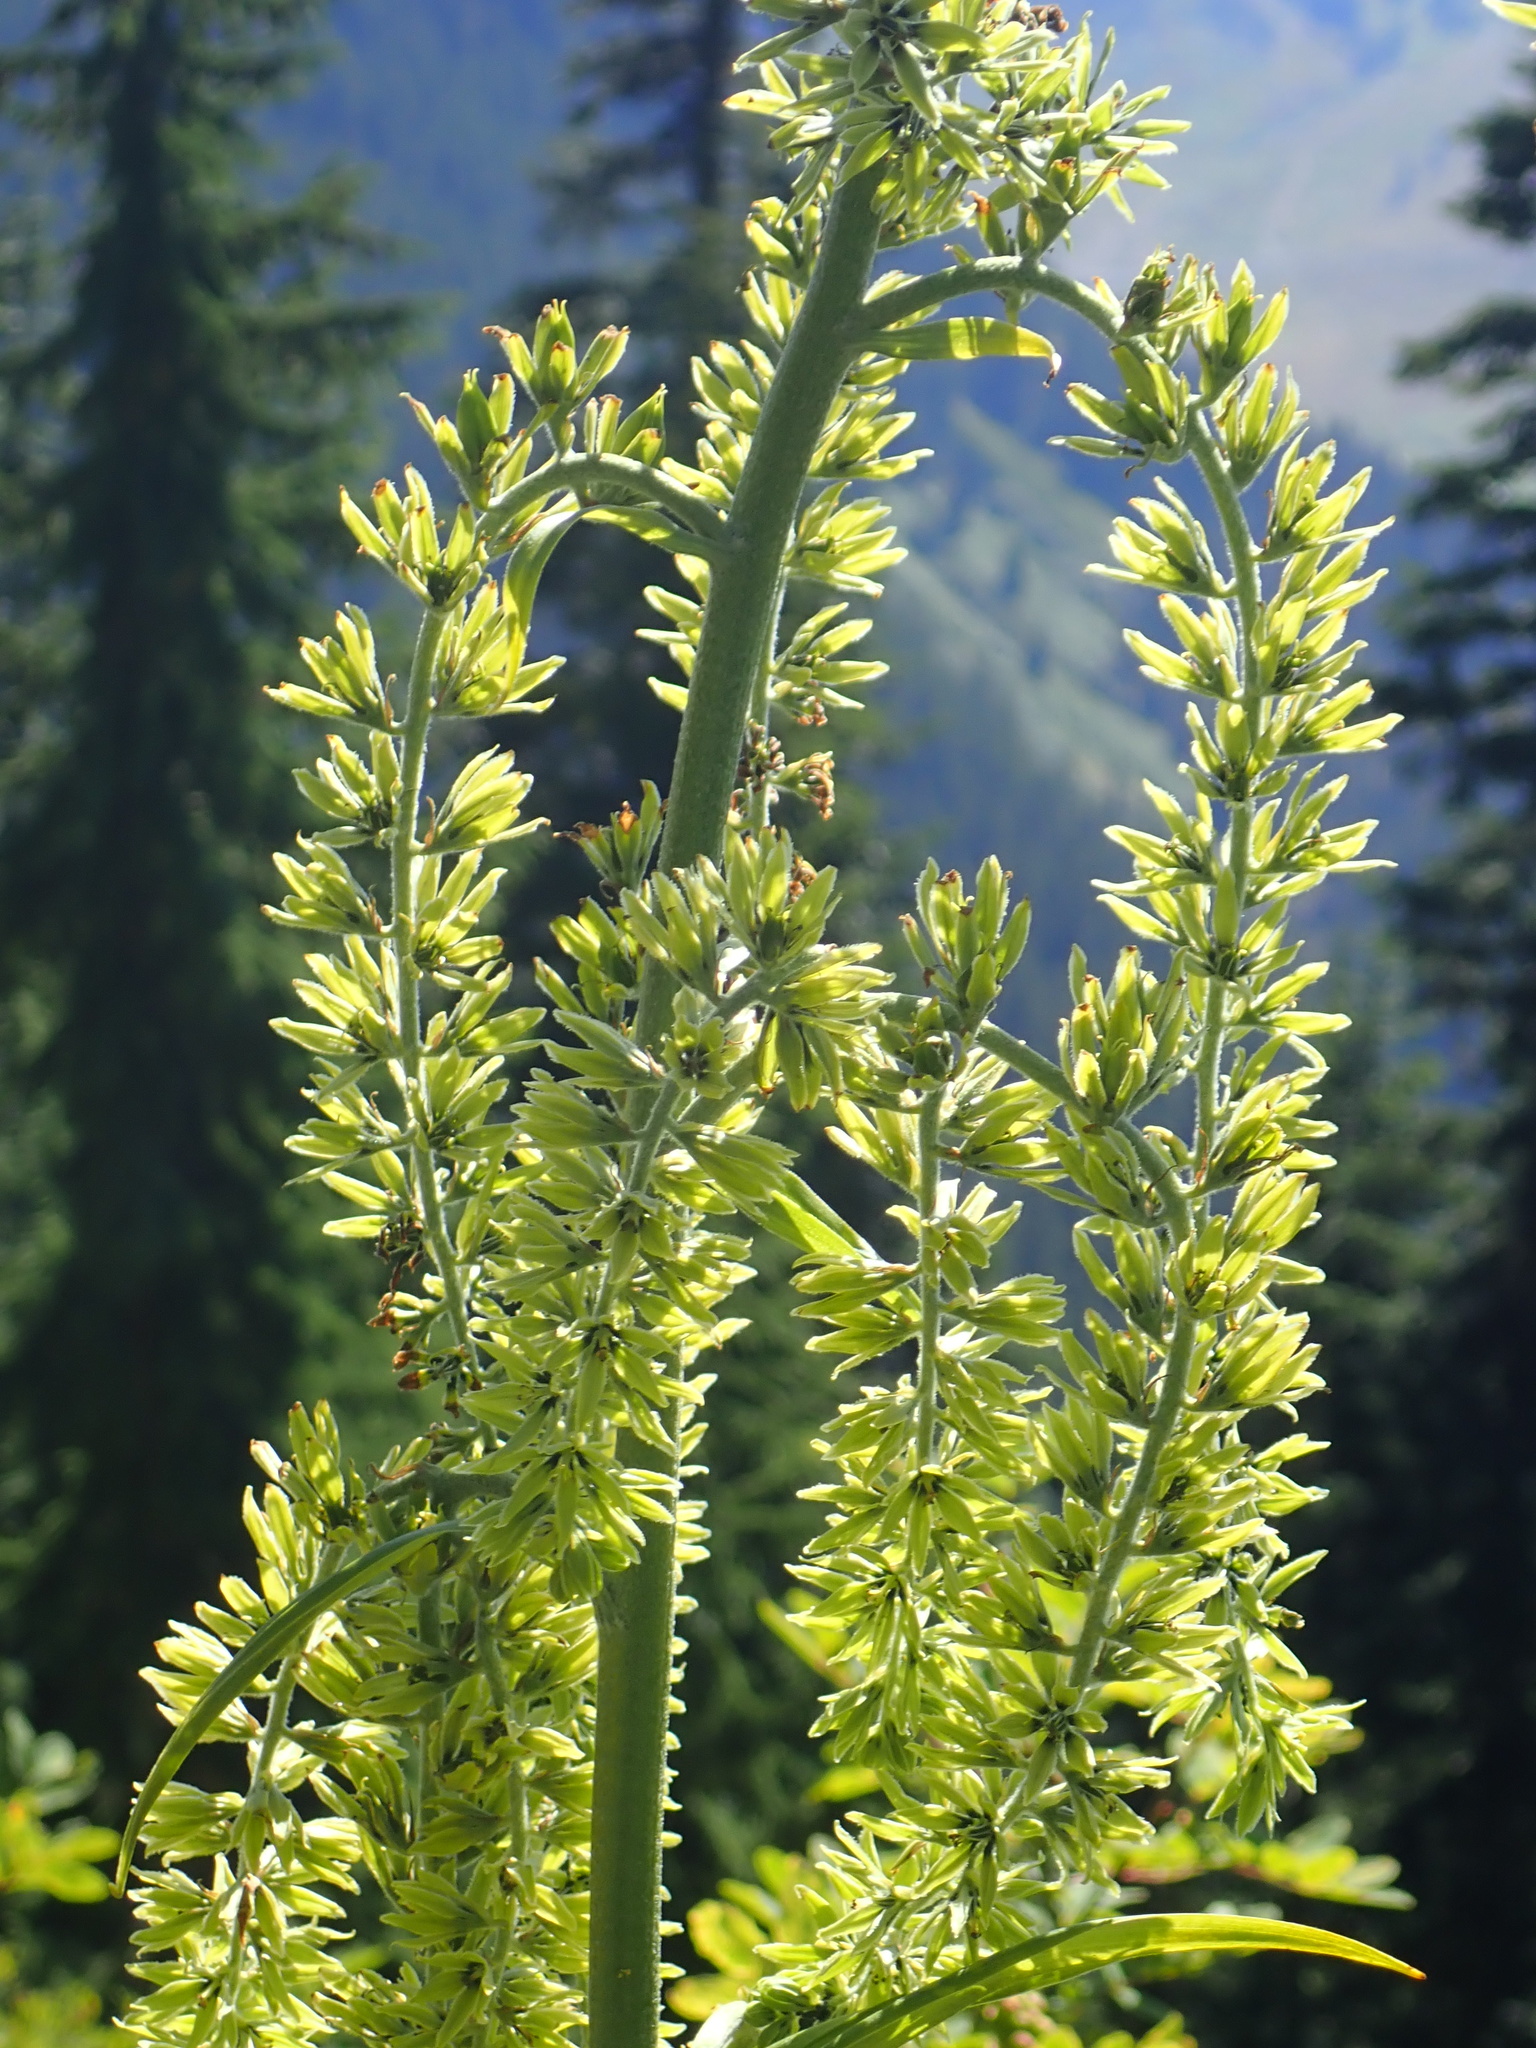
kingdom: Plantae
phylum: Tracheophyta
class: Liliopsida
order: Liliales
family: Melanthiaceae
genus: Veratrum
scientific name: Veratrum viride
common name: American false hellebore
